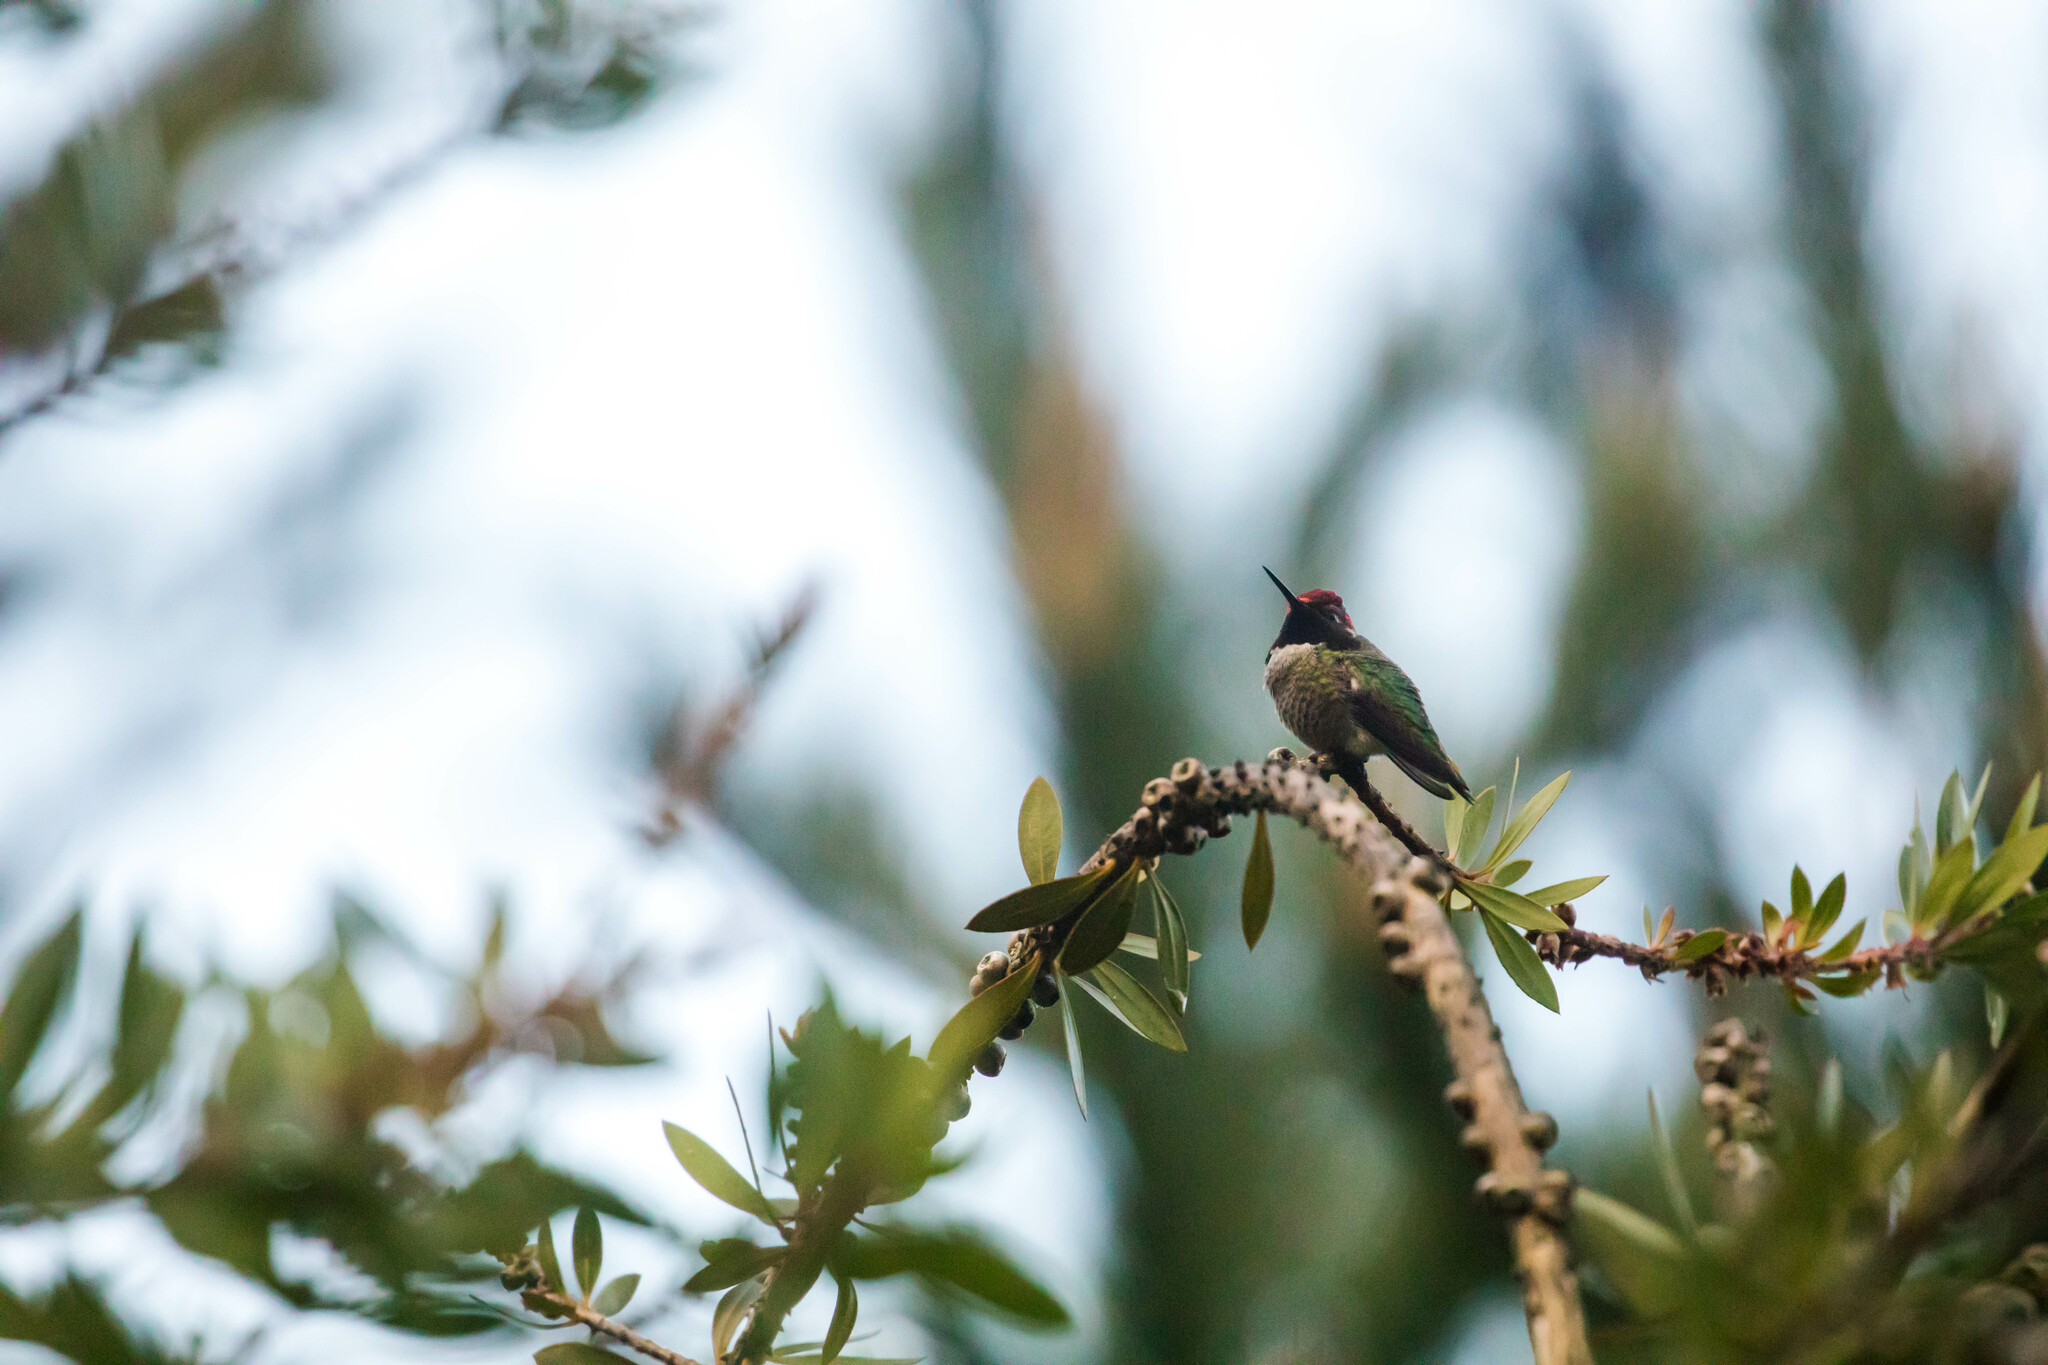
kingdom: Animalia
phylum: Chordata
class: Aves
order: Apodiformes
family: Trochilidae
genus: Calypte
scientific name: Calypte anna
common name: Anna's hummingbird
